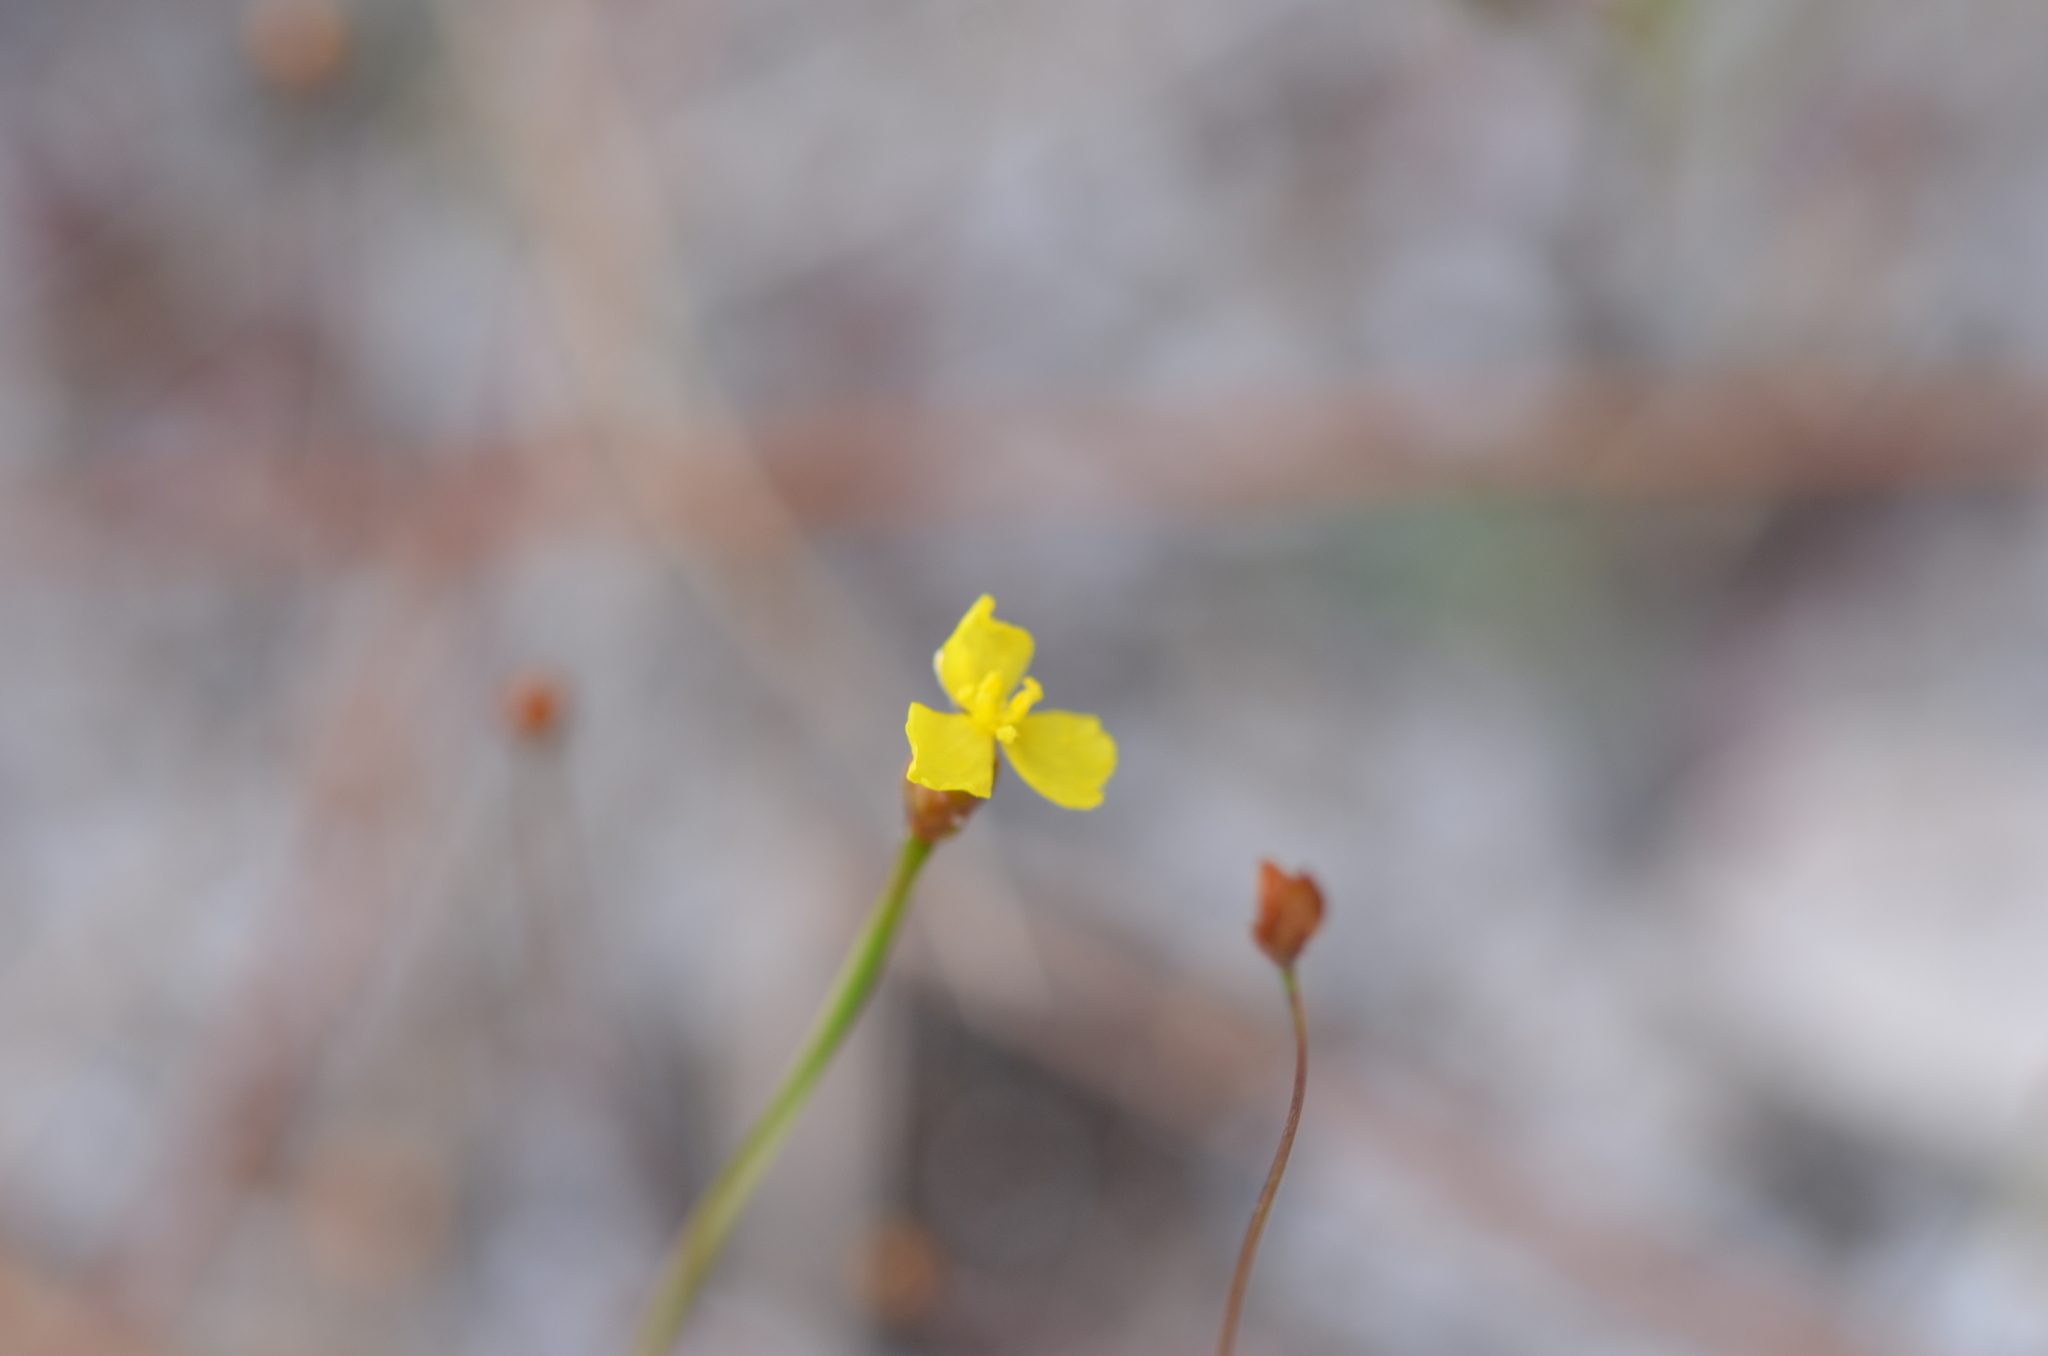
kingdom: Plantae
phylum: Tracheophyta
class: Liliopsida
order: Poales
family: Xyridaceae
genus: Xyris
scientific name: Xyris flabelliformis
